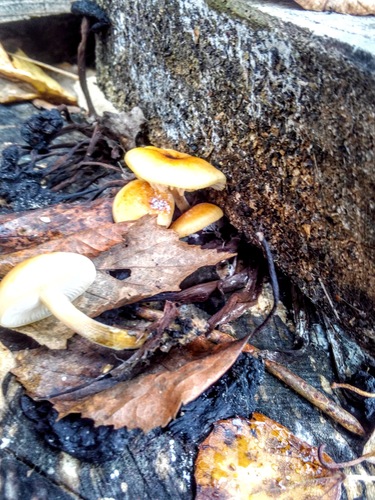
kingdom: Fungi
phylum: Basidiomycota
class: Agaricomycetes
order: Agaricales
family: Physalacriaceae
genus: Flammulina
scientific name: Flammulina
